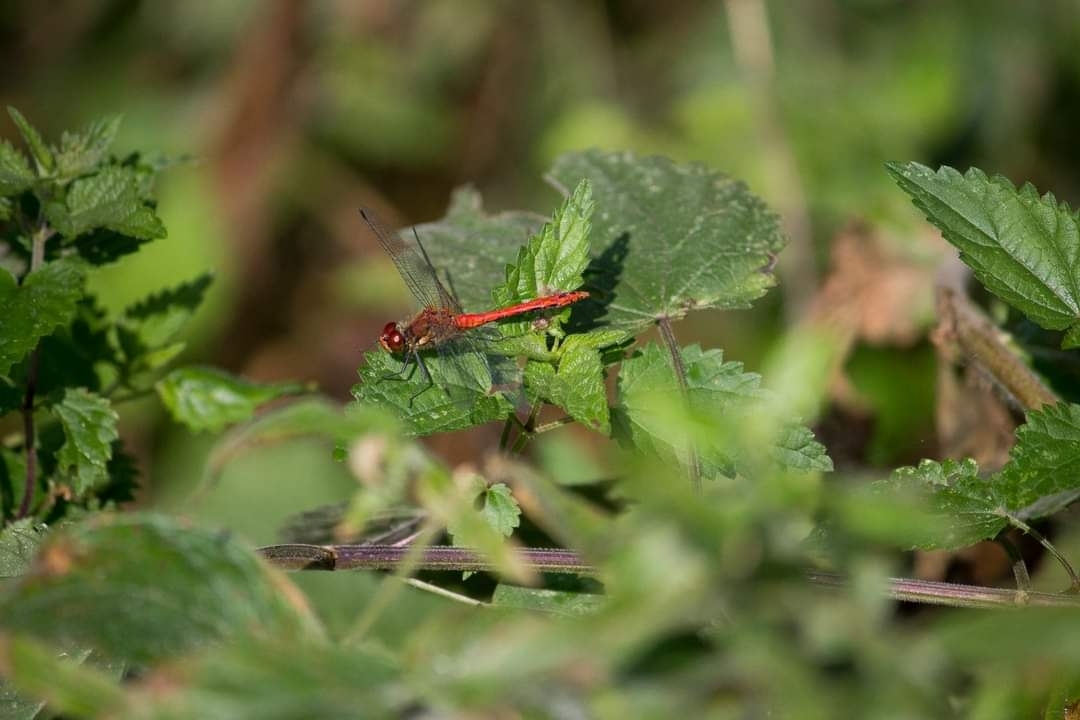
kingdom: Animalia
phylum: Arthropoda
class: Insecta
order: Odonata
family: Libellulidae
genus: Sympetrum
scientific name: Sympetrum sanguineum
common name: Ruddy darter
